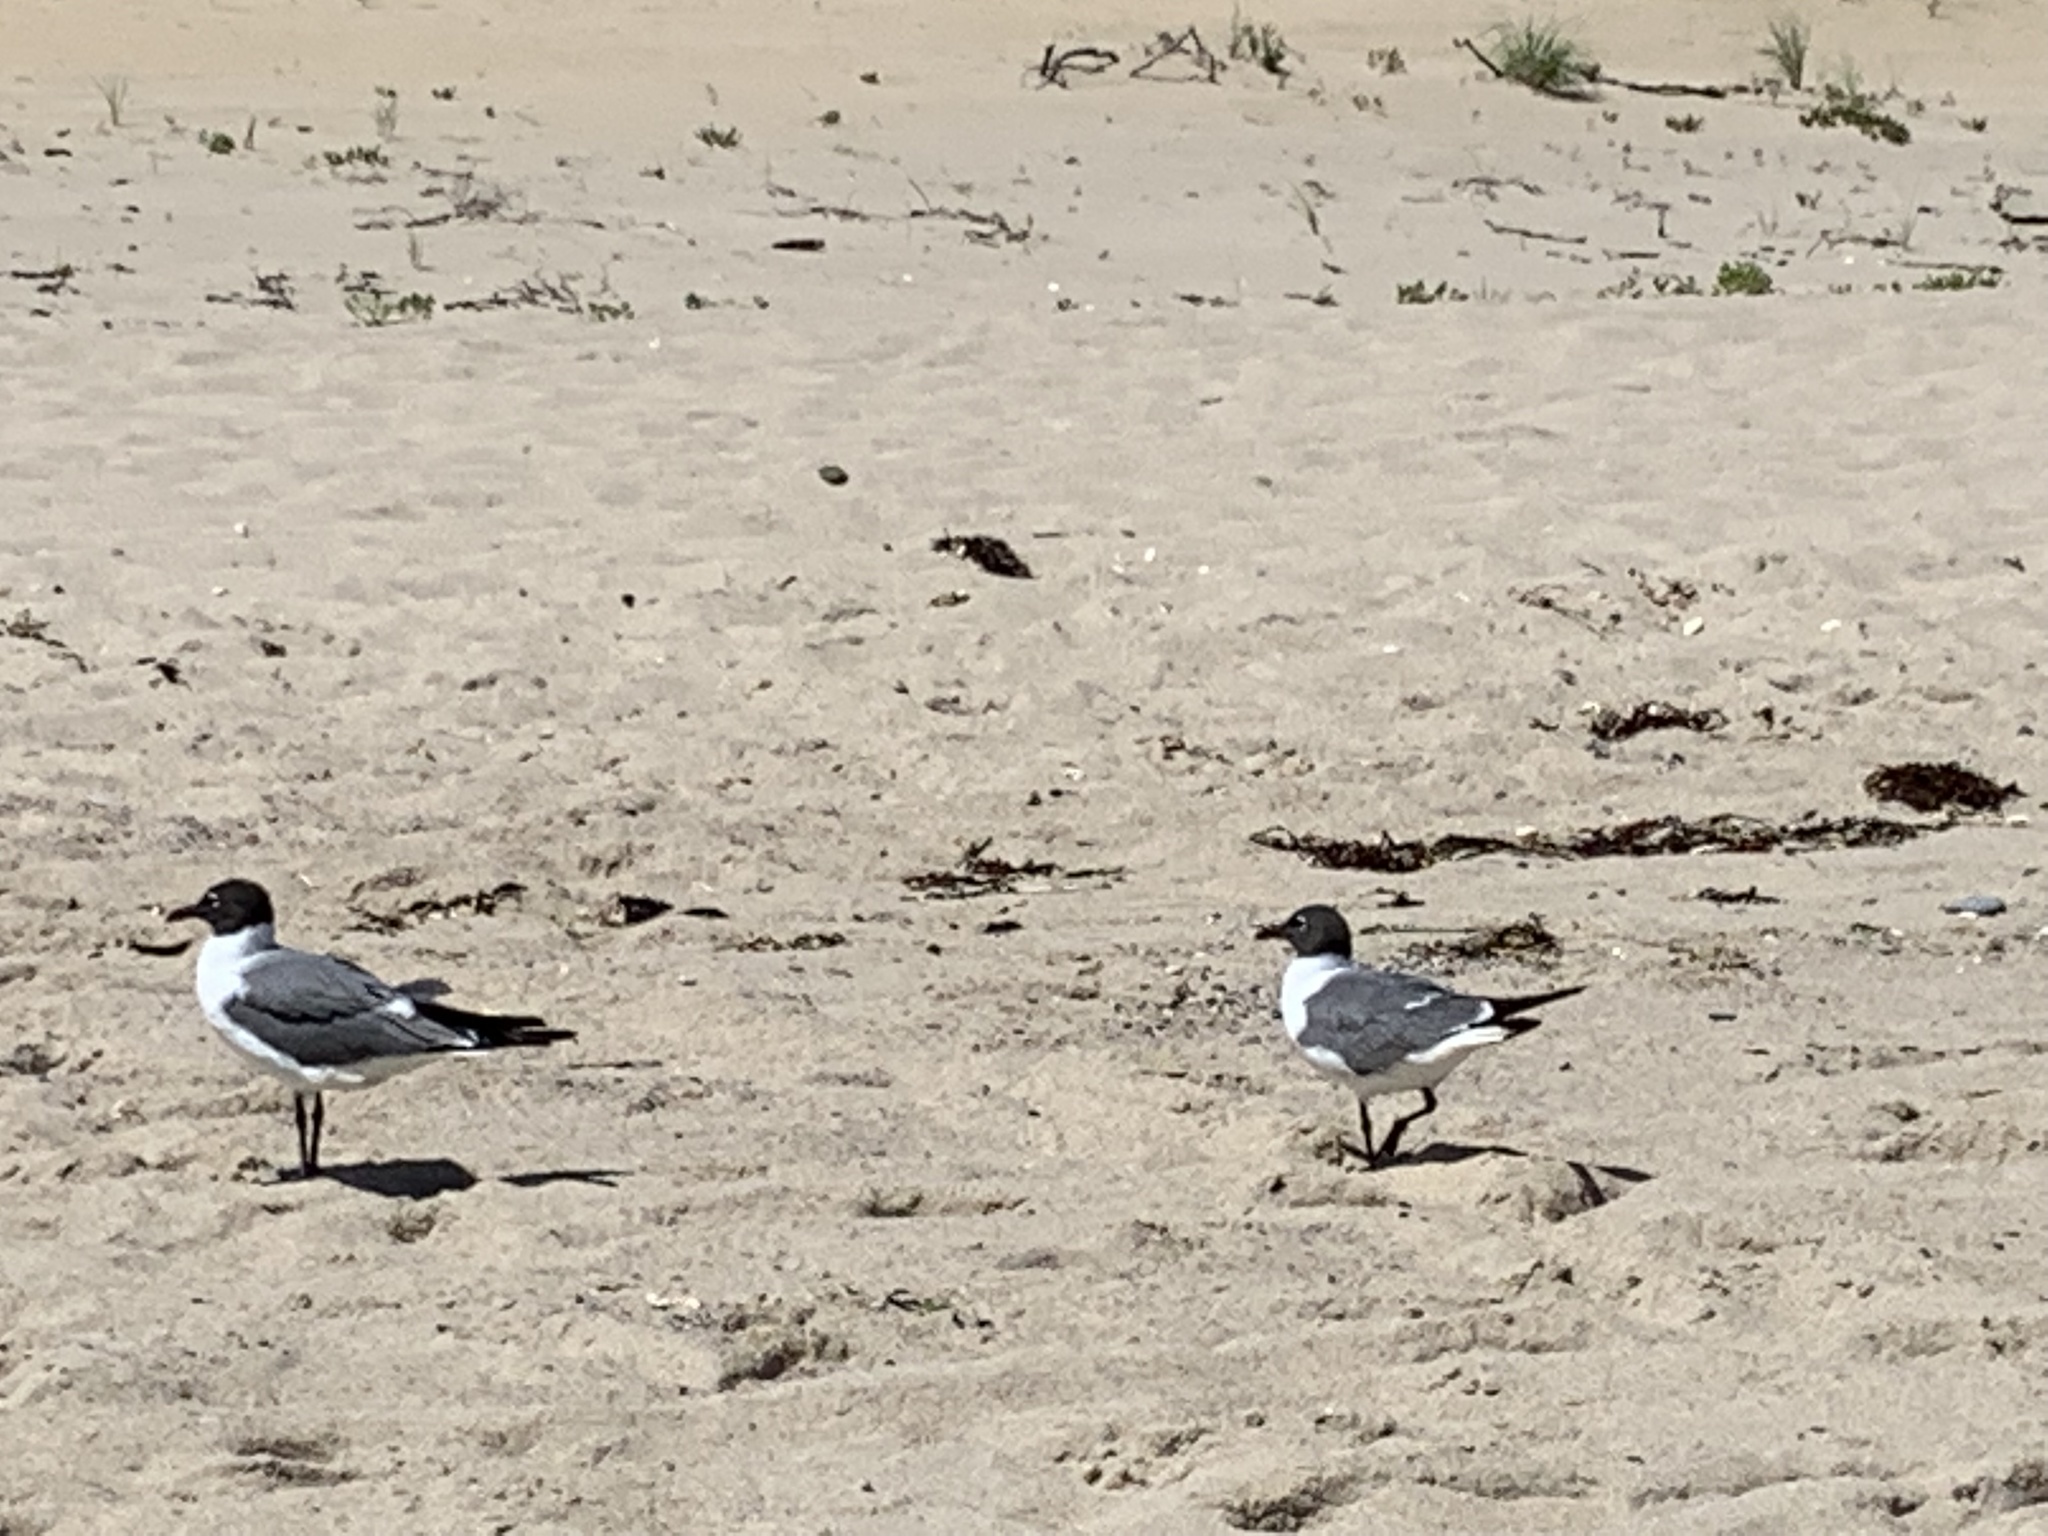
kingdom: Animalia
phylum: Chordata
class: Aves
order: Charadriiformes
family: Laridae
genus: Leucophaeus
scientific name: Leucophaeus atricilla
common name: Laughing gull
